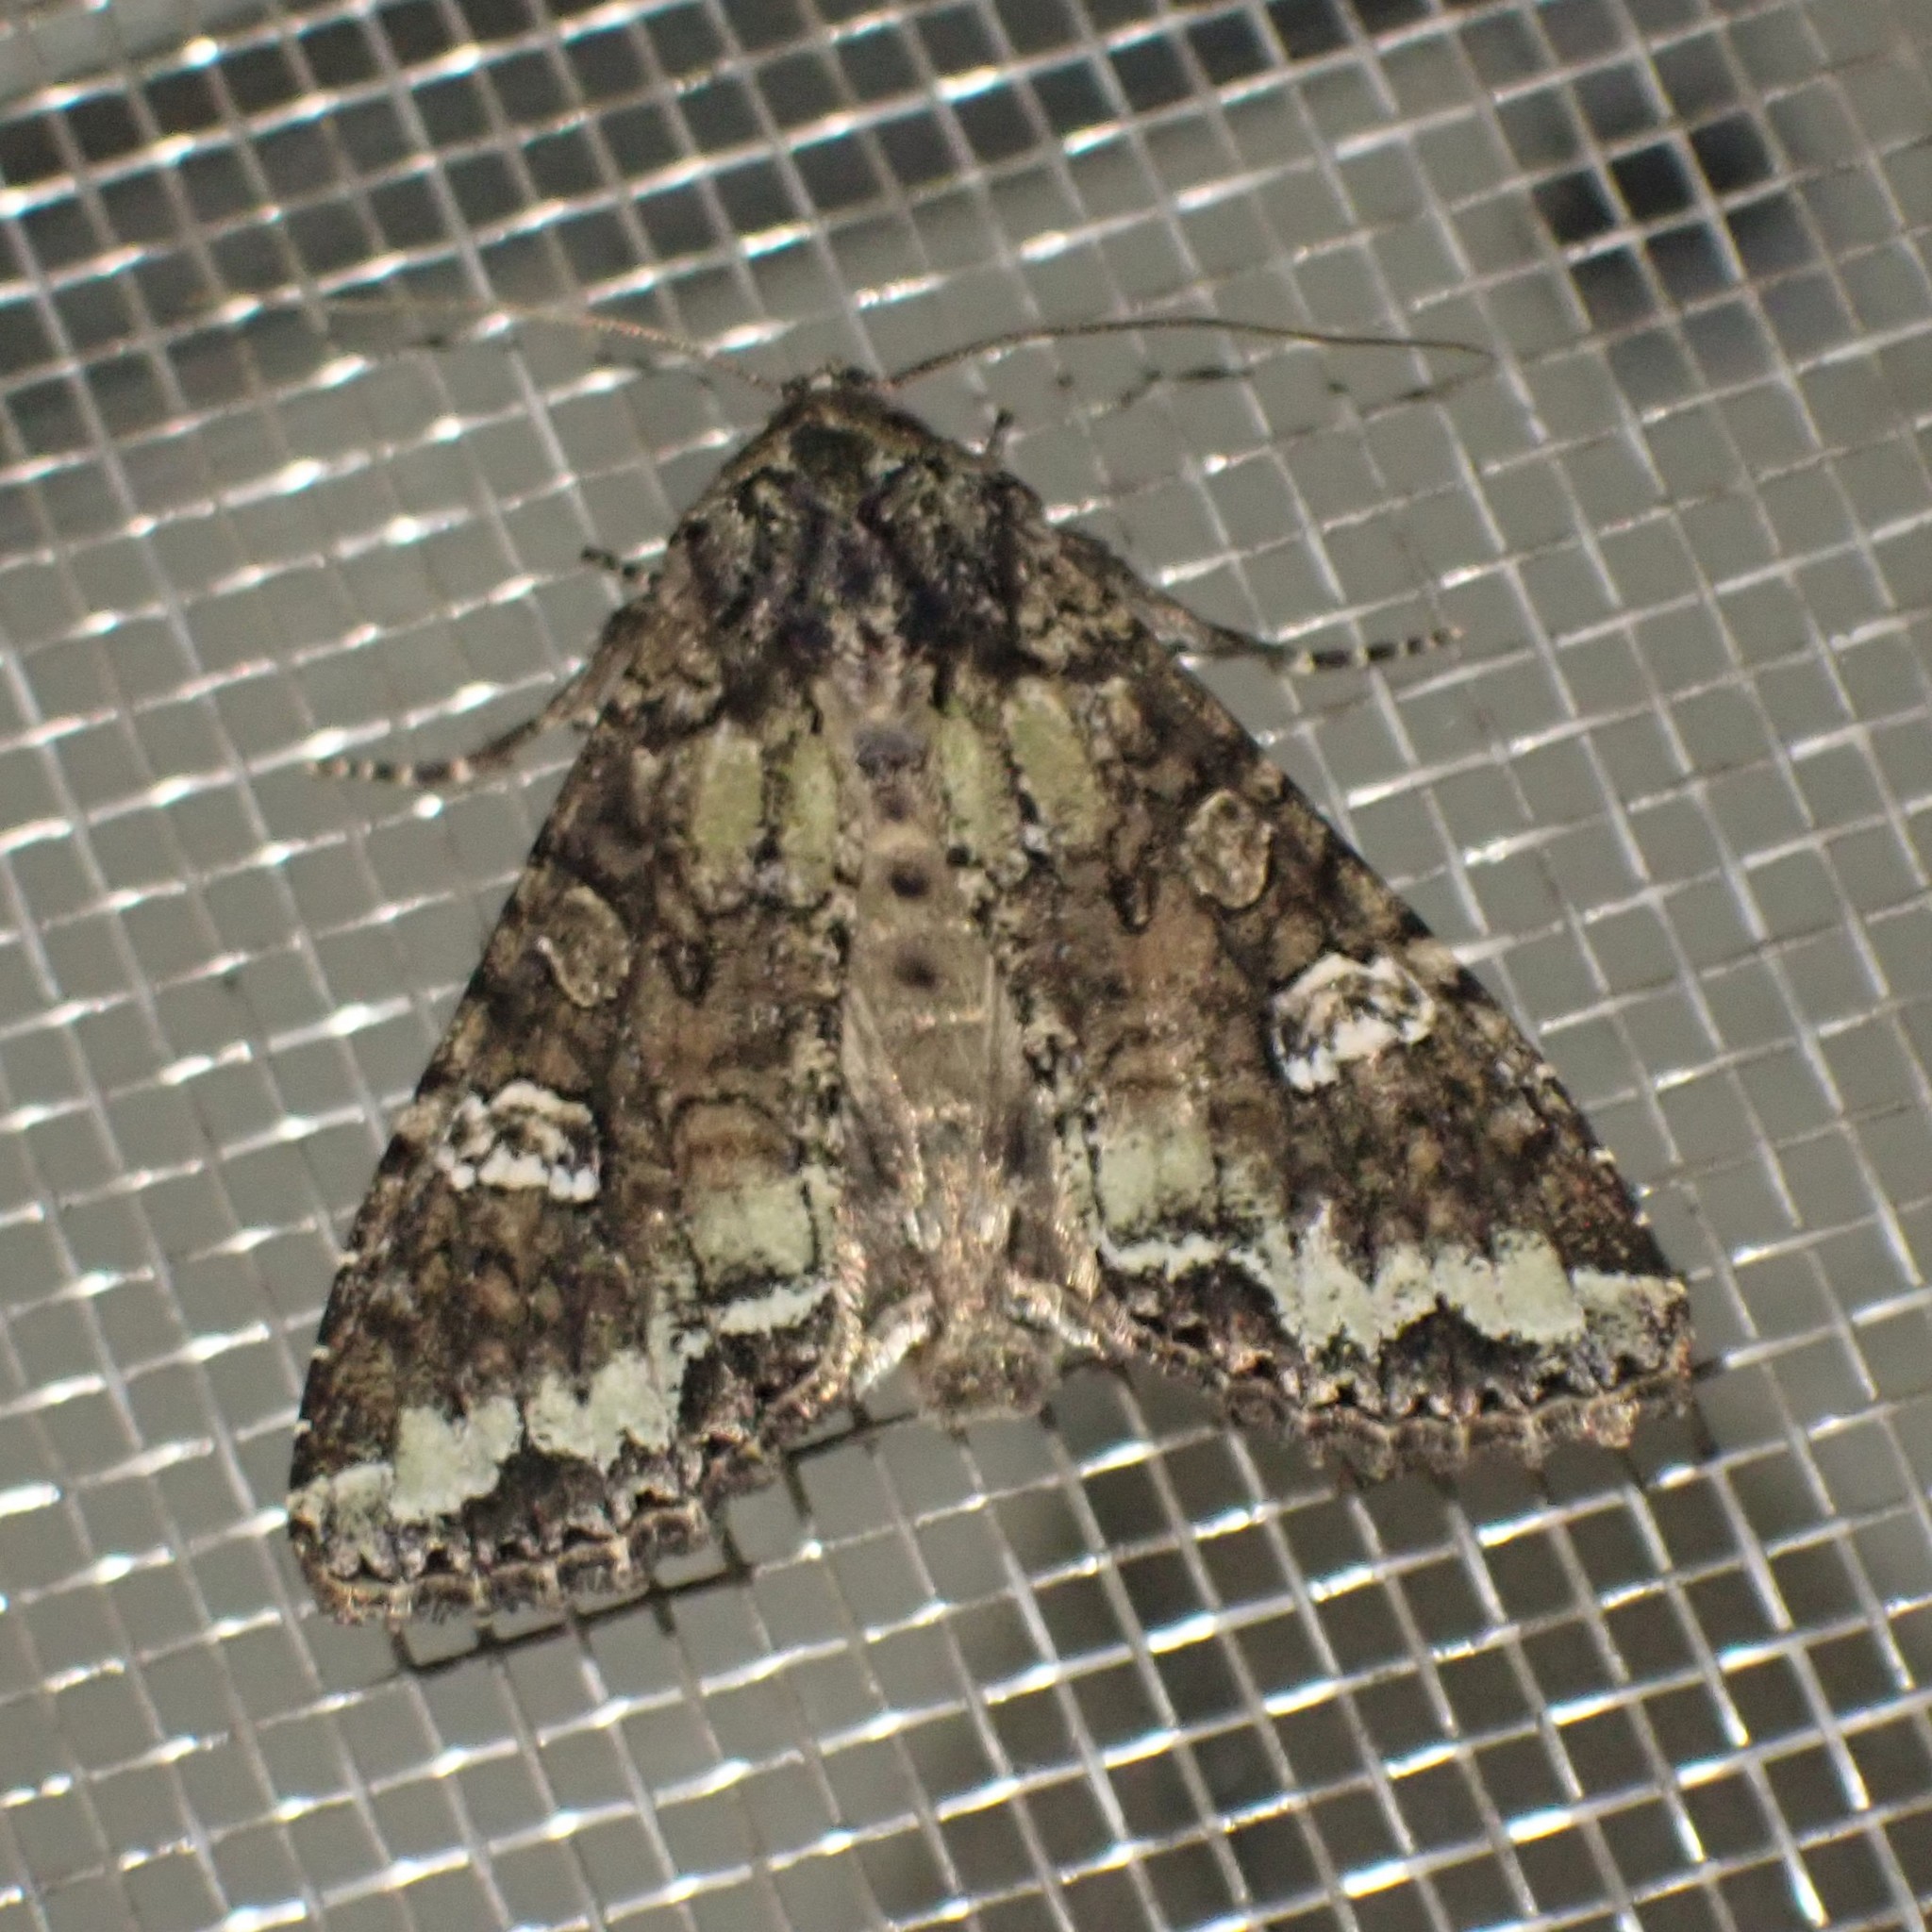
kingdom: Animalia
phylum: Arthropoda
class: Insecta
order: Lepidoptera
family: Noctuidae
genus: Mamestra
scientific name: Mamestra configurata
